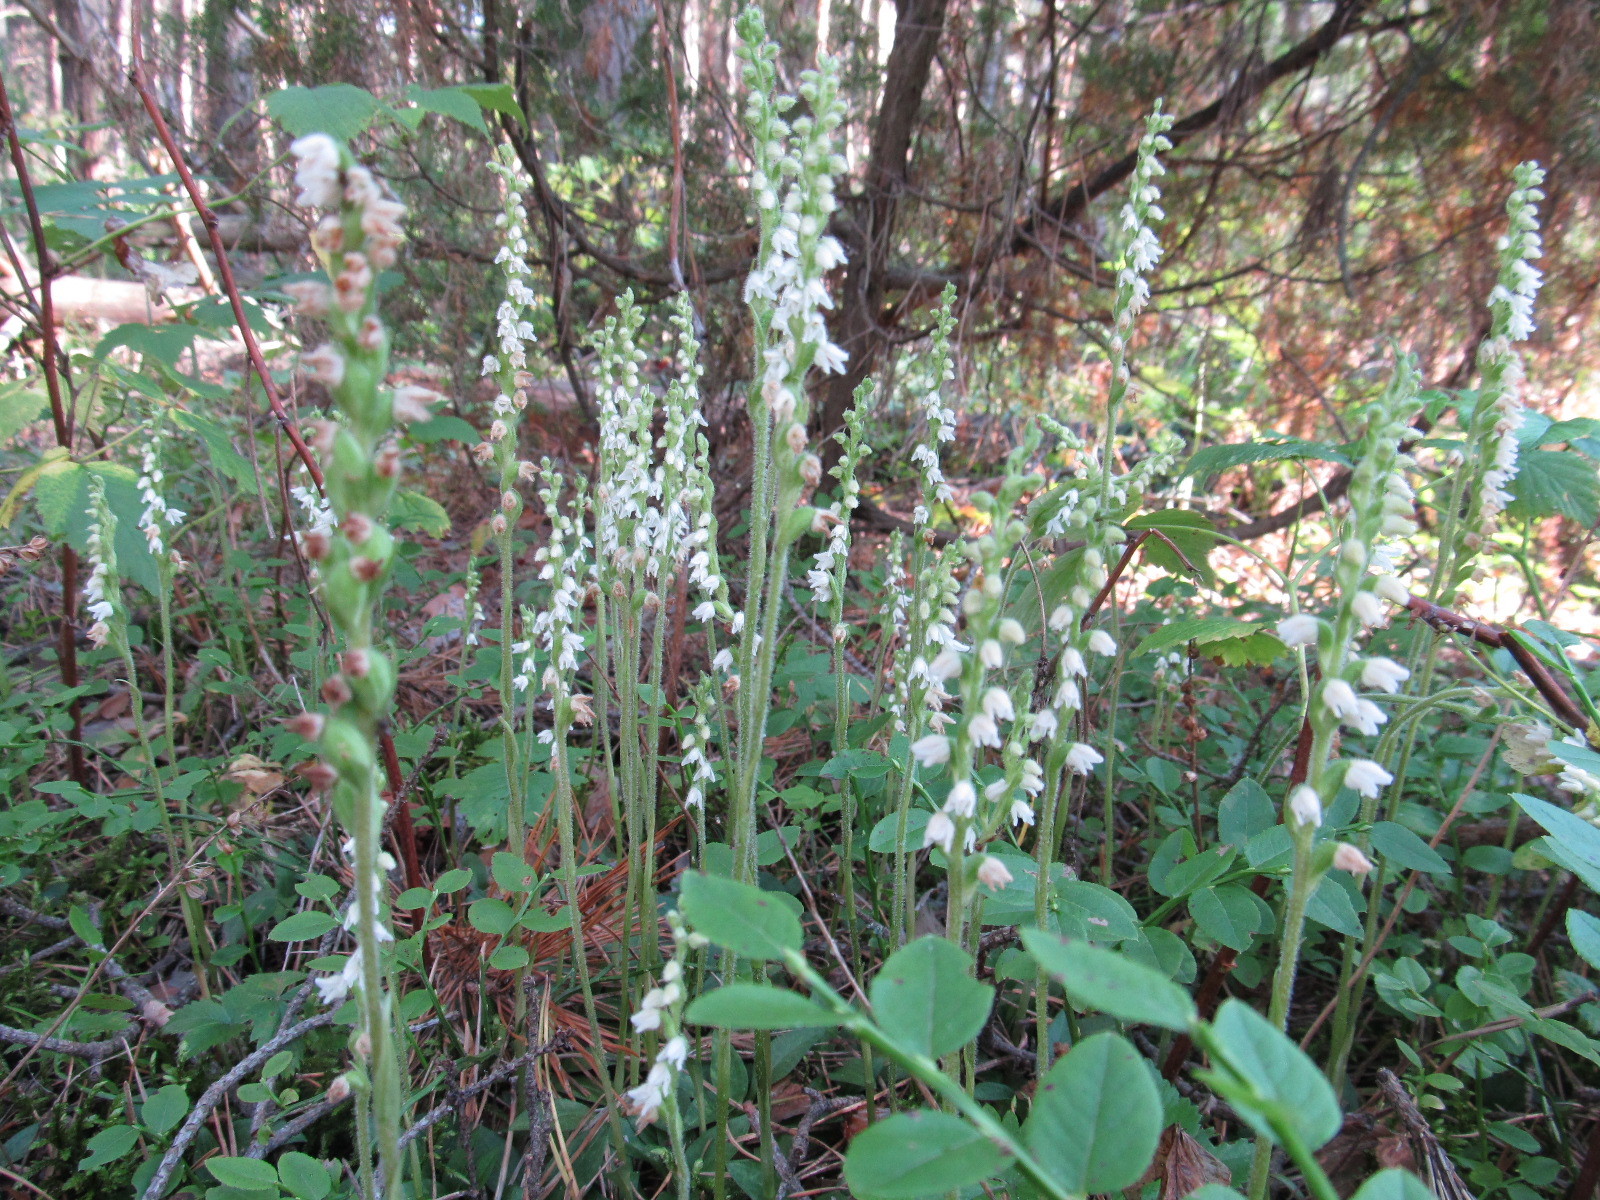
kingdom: Plantae
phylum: Tracheophyta
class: Liliopsida
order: Asparagales
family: Orchidaceae
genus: Goodyera
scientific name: Goodyera repens
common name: Creeping lady's-tresses
